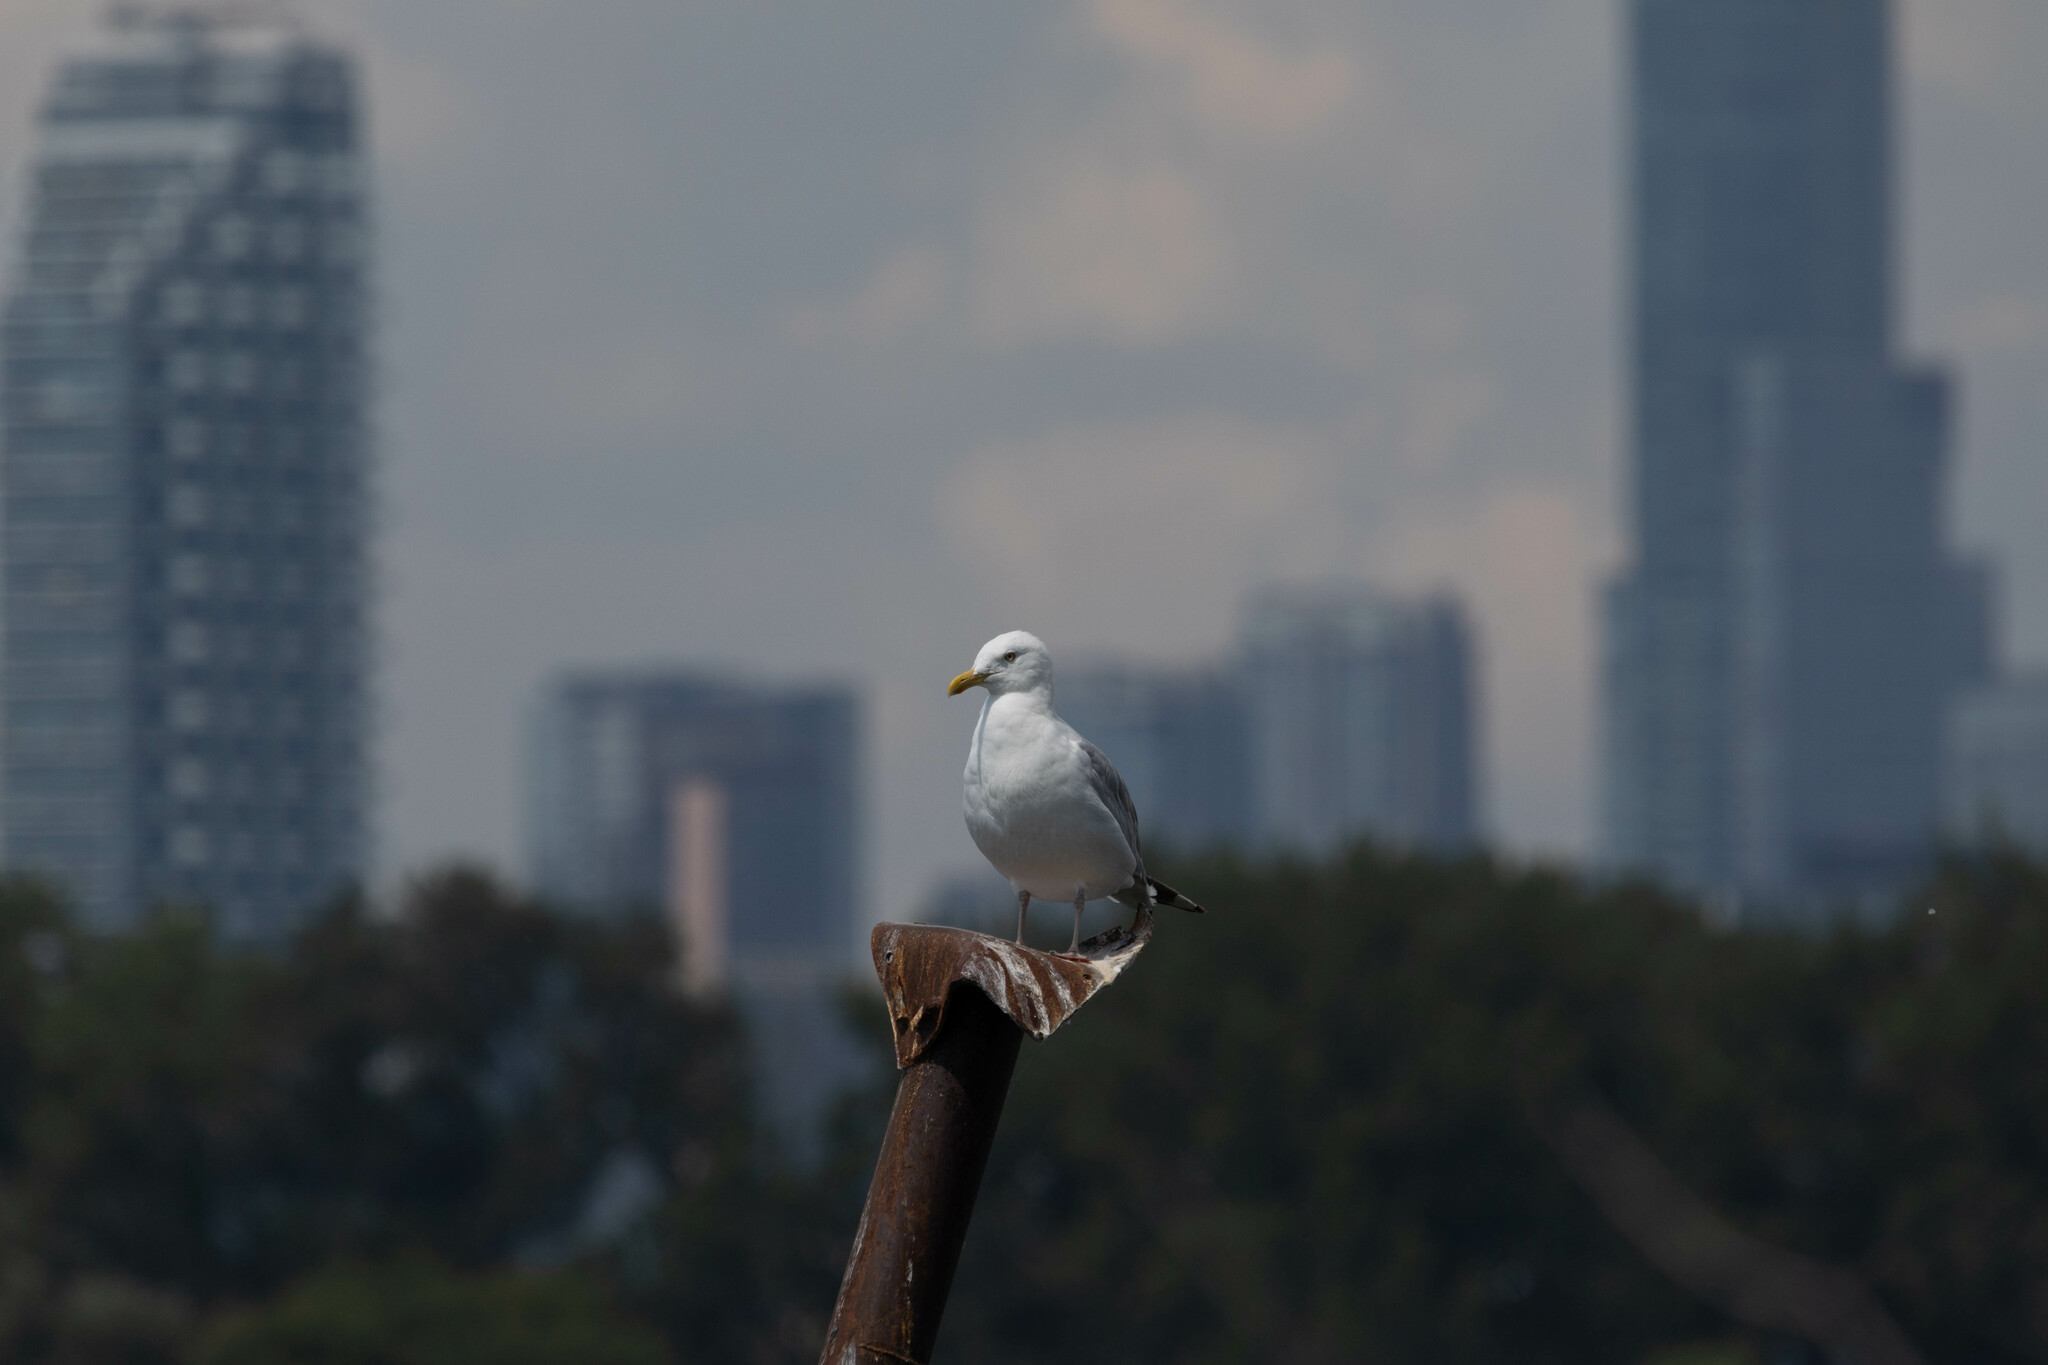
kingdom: Animalia
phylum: Chordata
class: Aves
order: Charadriiformes
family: Laridae
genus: Larus
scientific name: Larus argentatus
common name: Herring gull
